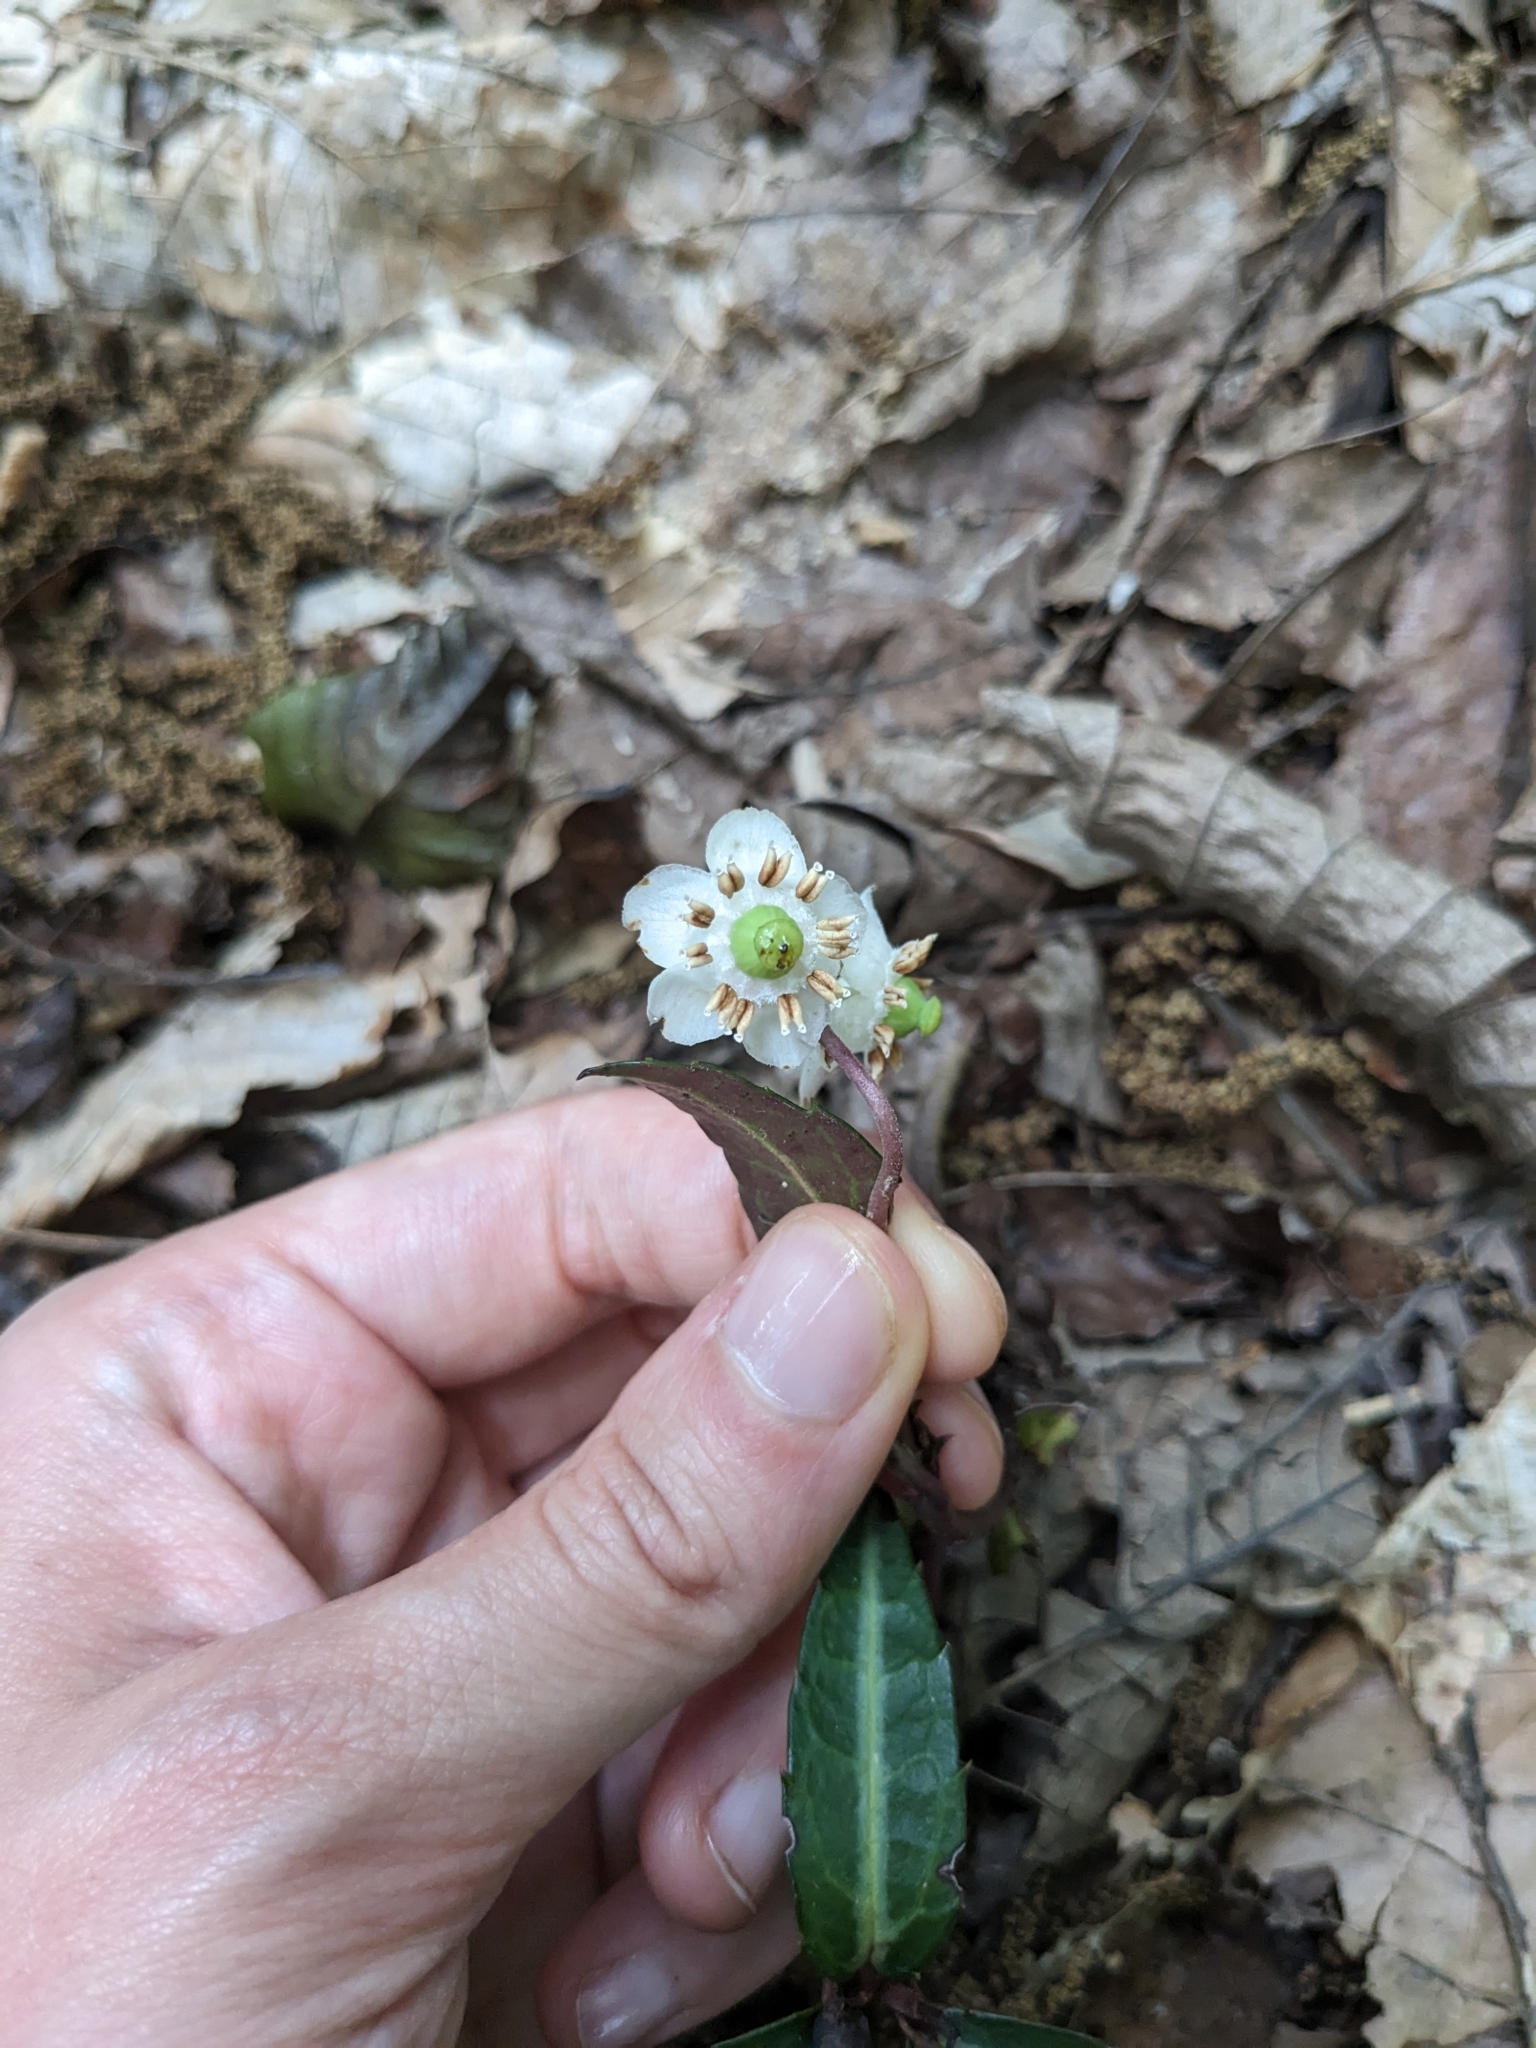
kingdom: Plantae
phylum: Tracheophyta
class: Magnoliopsida
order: Ericales
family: Ericaceae
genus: Chimaphila
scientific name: Chimaphila maculata
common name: Spotted pipsissewa
